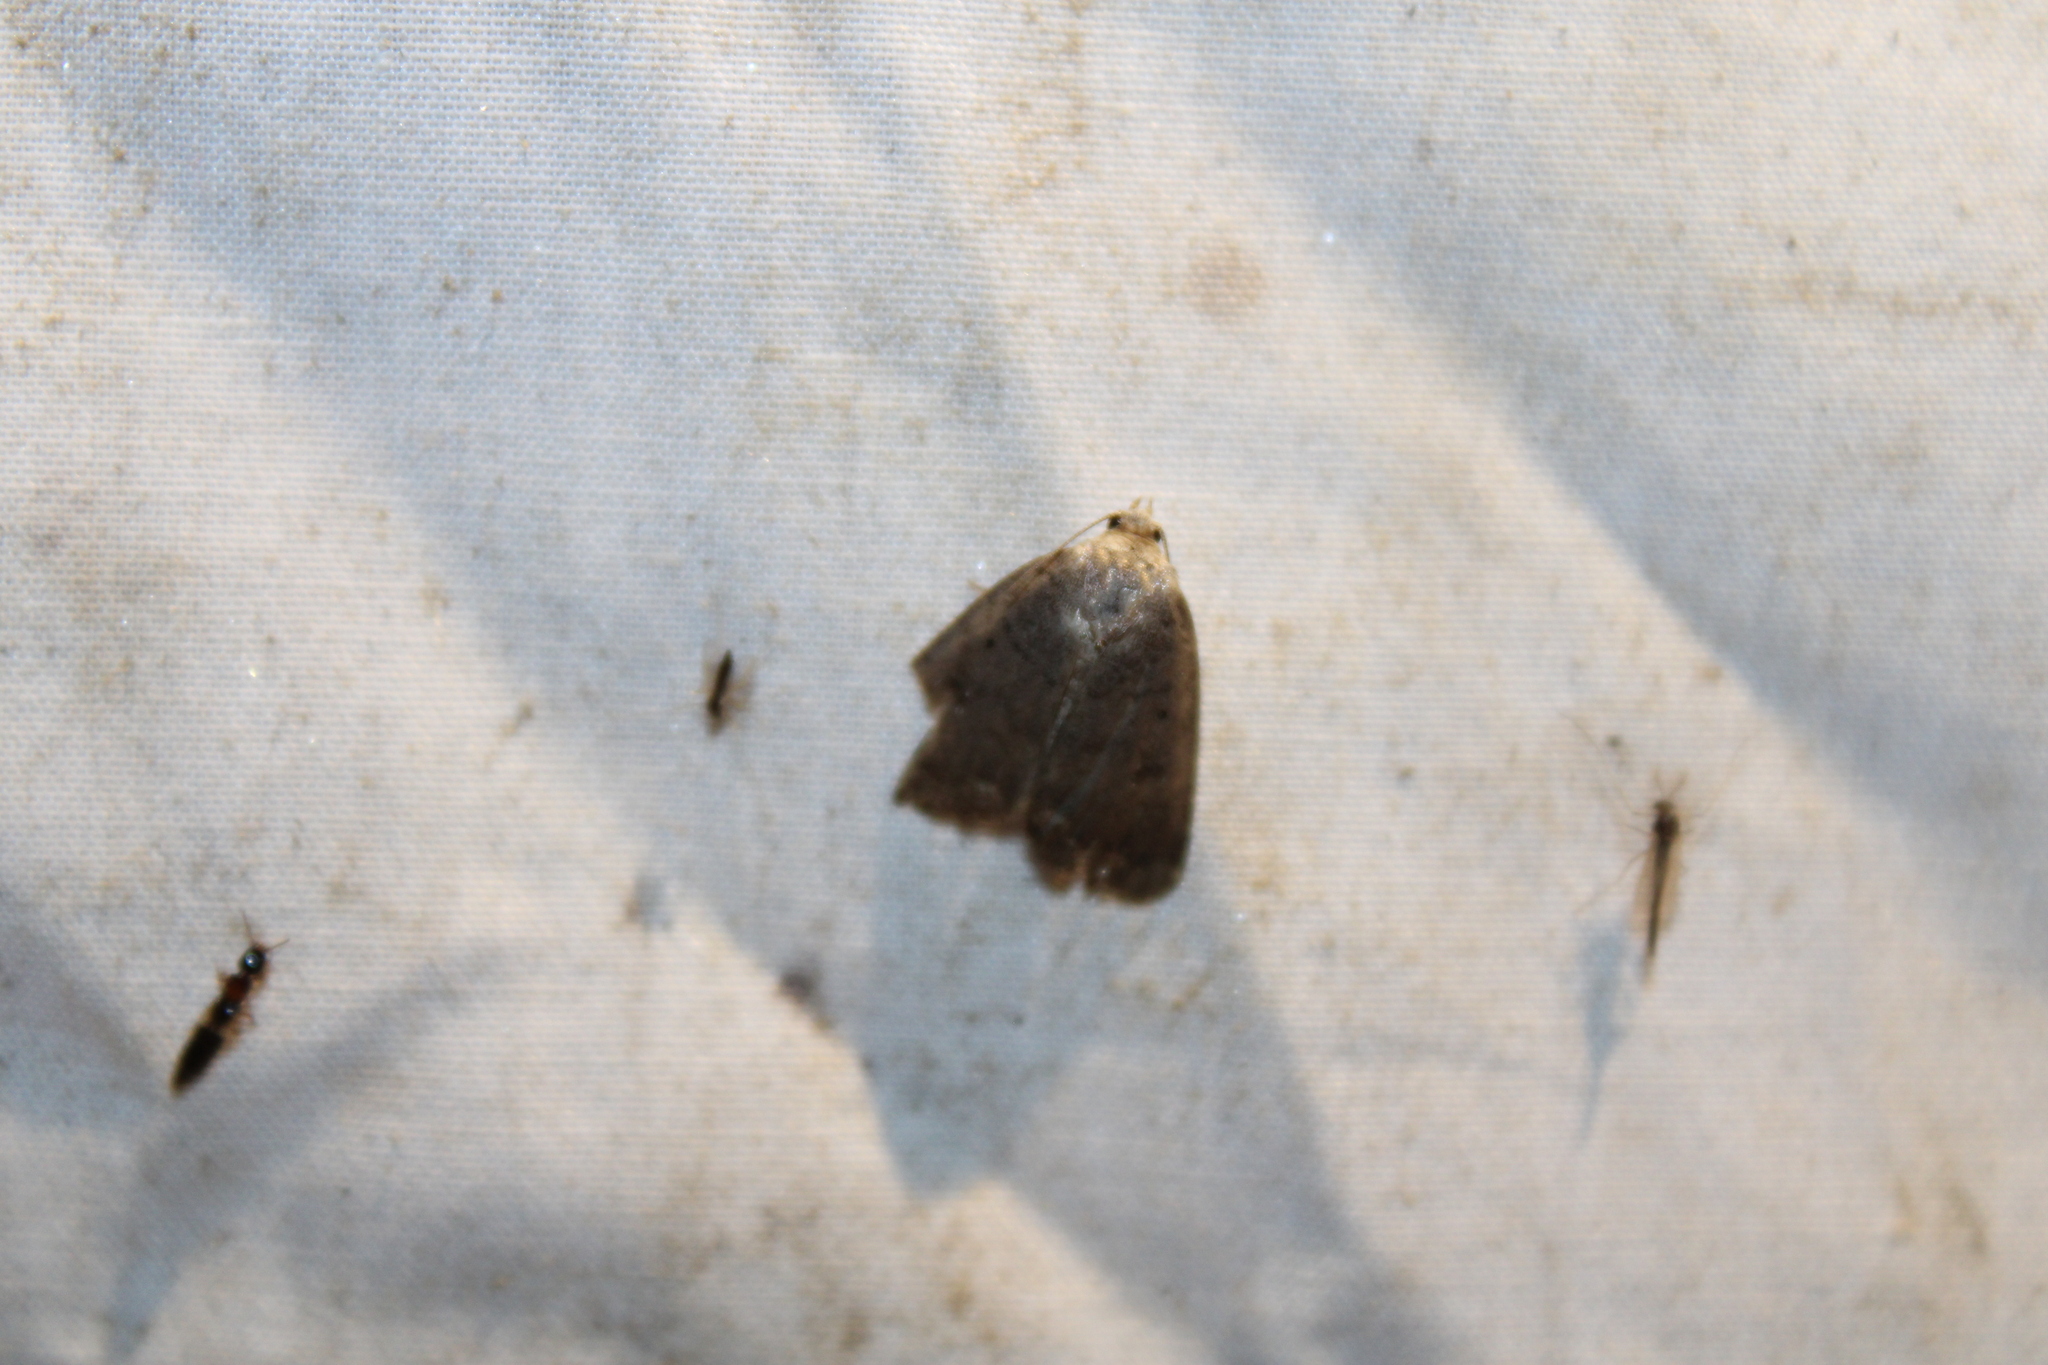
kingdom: Animalia
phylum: Arthropoda
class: Insecta
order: Lepidoptera
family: Noctuidae
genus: Athetis
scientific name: Athetis tarda
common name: Slowpoke moth
